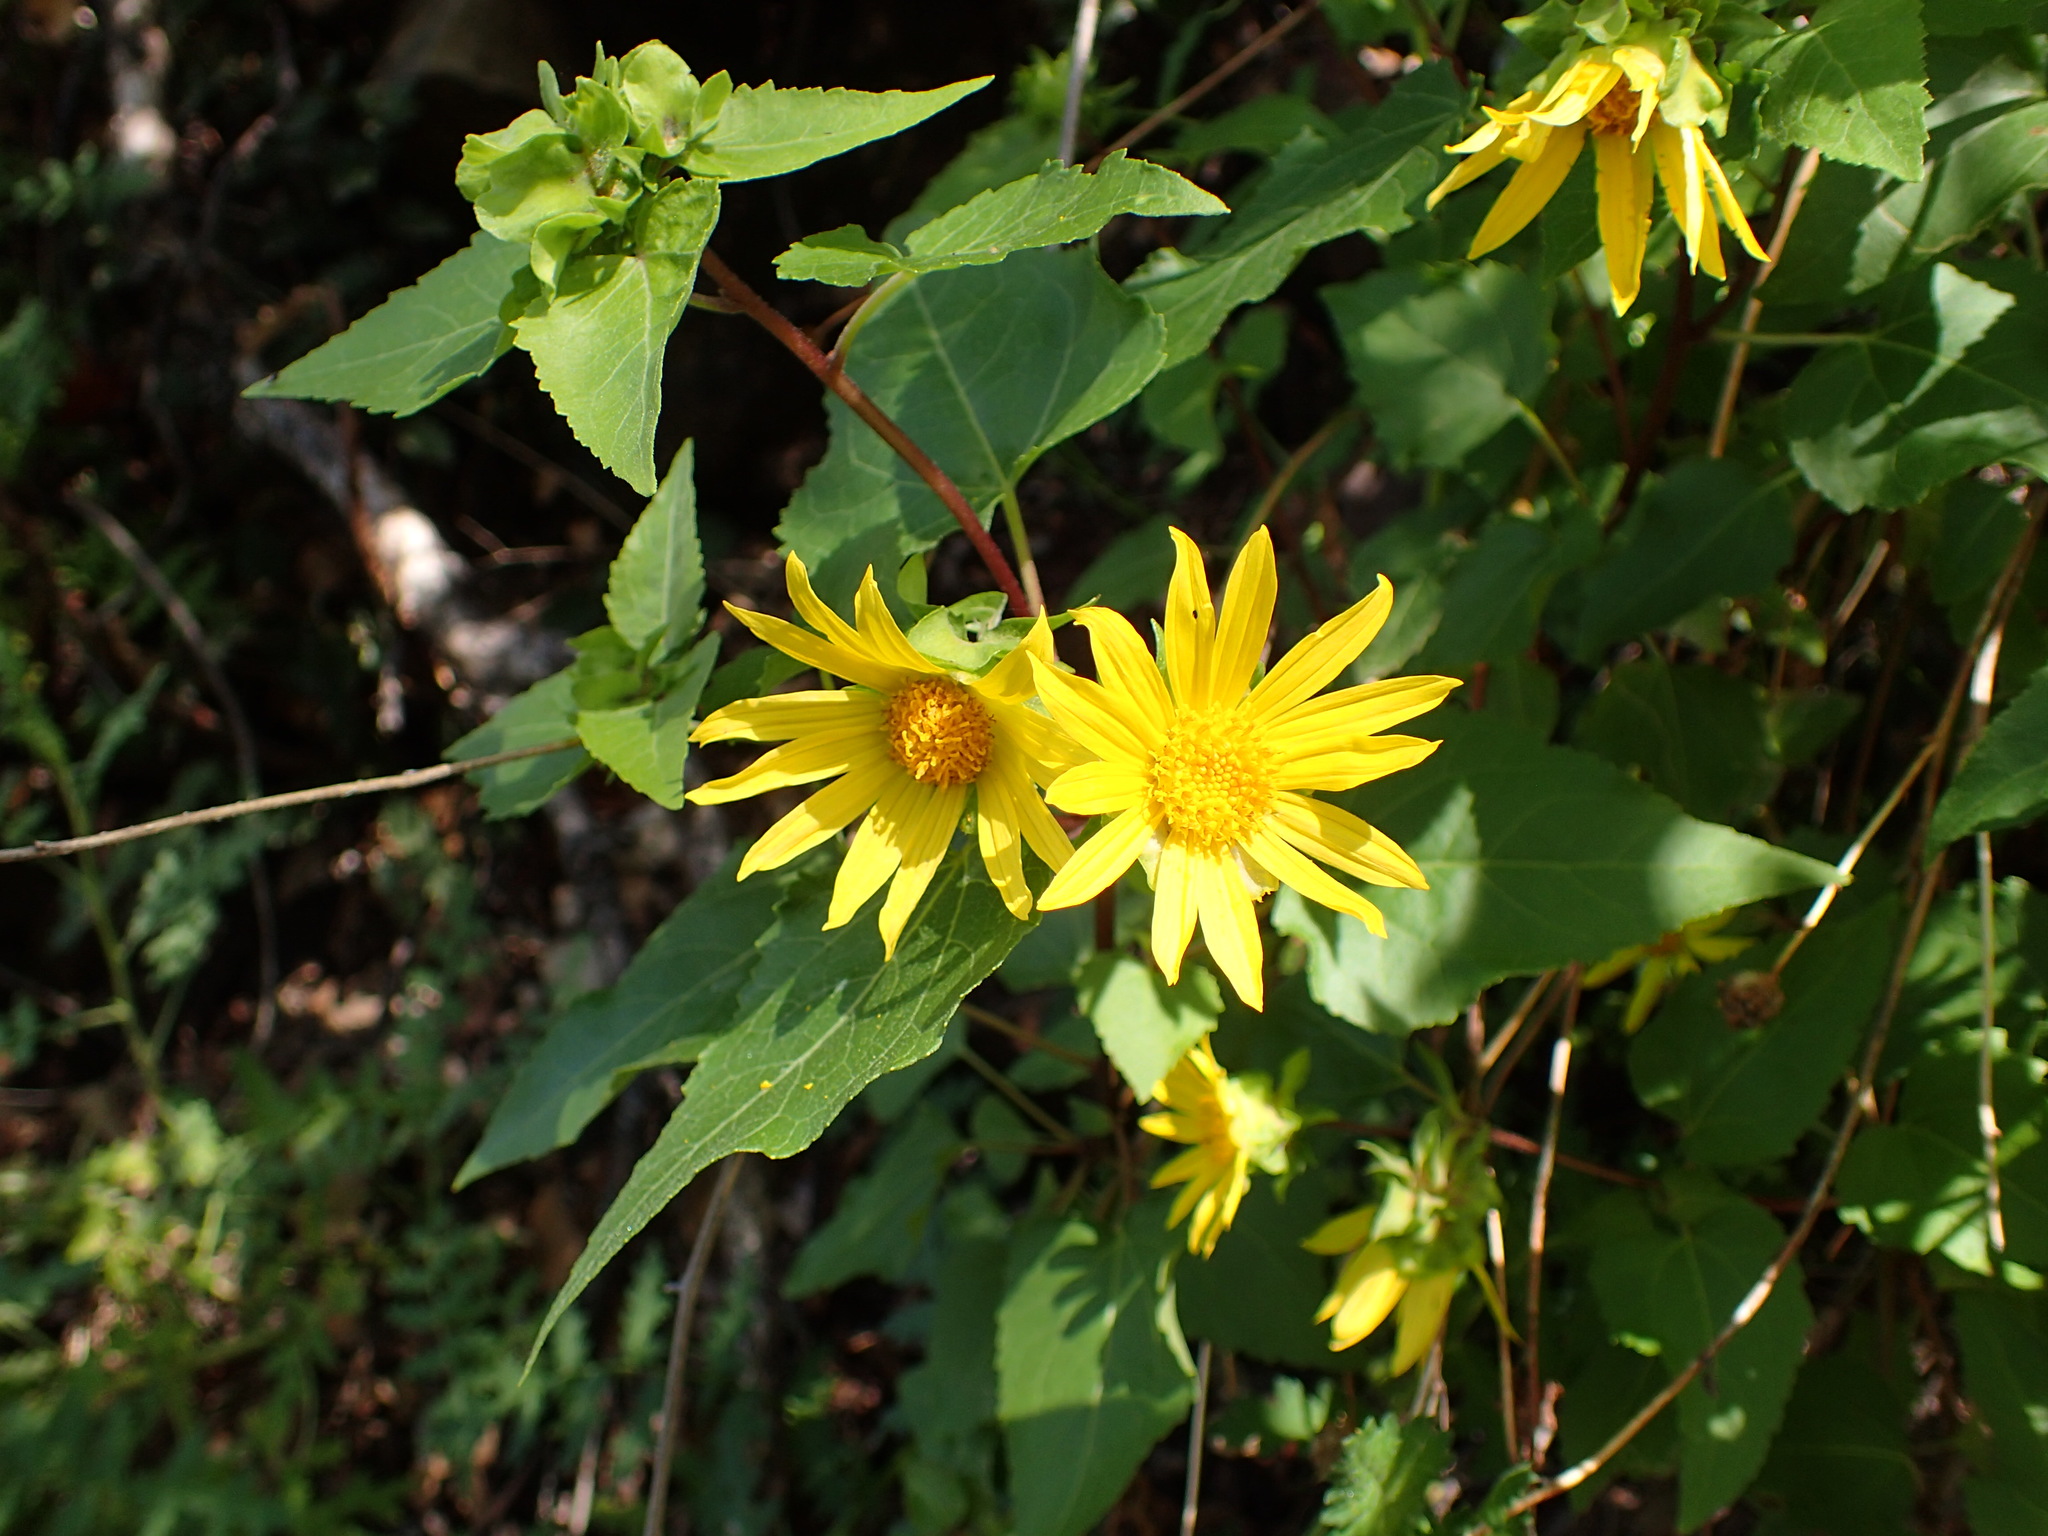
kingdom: Plantae
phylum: Tracheophyta
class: Magnoliopsida
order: Asterales
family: Asteraceae
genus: Venegasia
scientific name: Venegasia carpesioides
